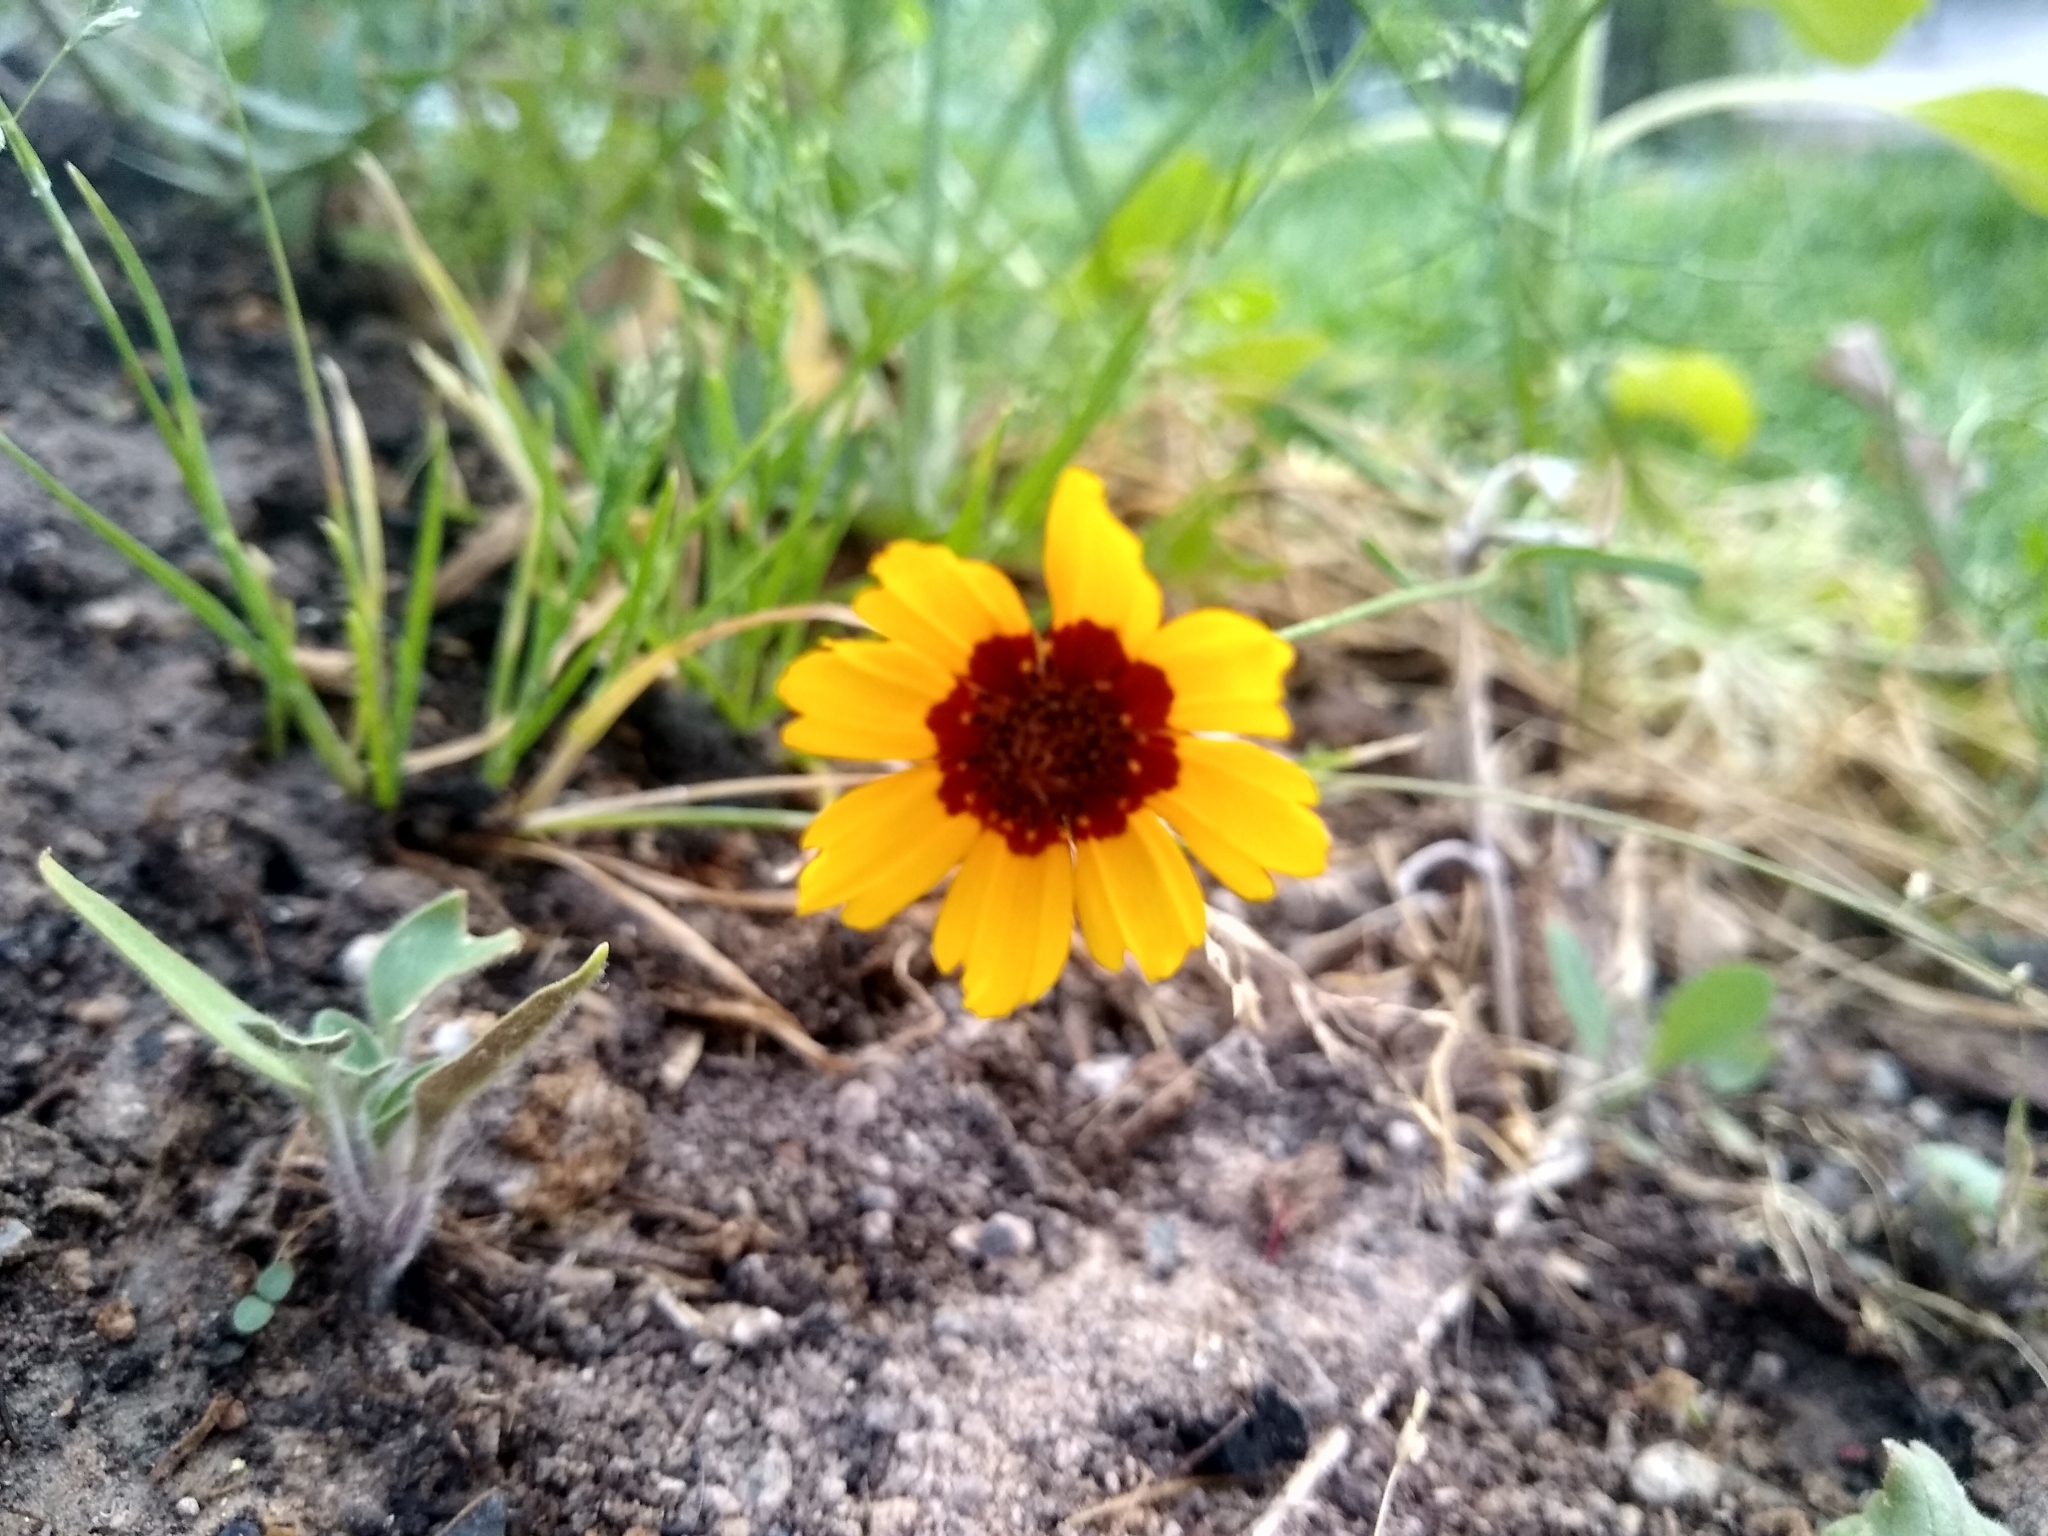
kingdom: Plantae
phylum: Tracheophyta
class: Magnoliopsida
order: Asterales
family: Asteraceae
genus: Coreopsis
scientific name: Coreopsis tinctoria
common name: Garden tickseed
